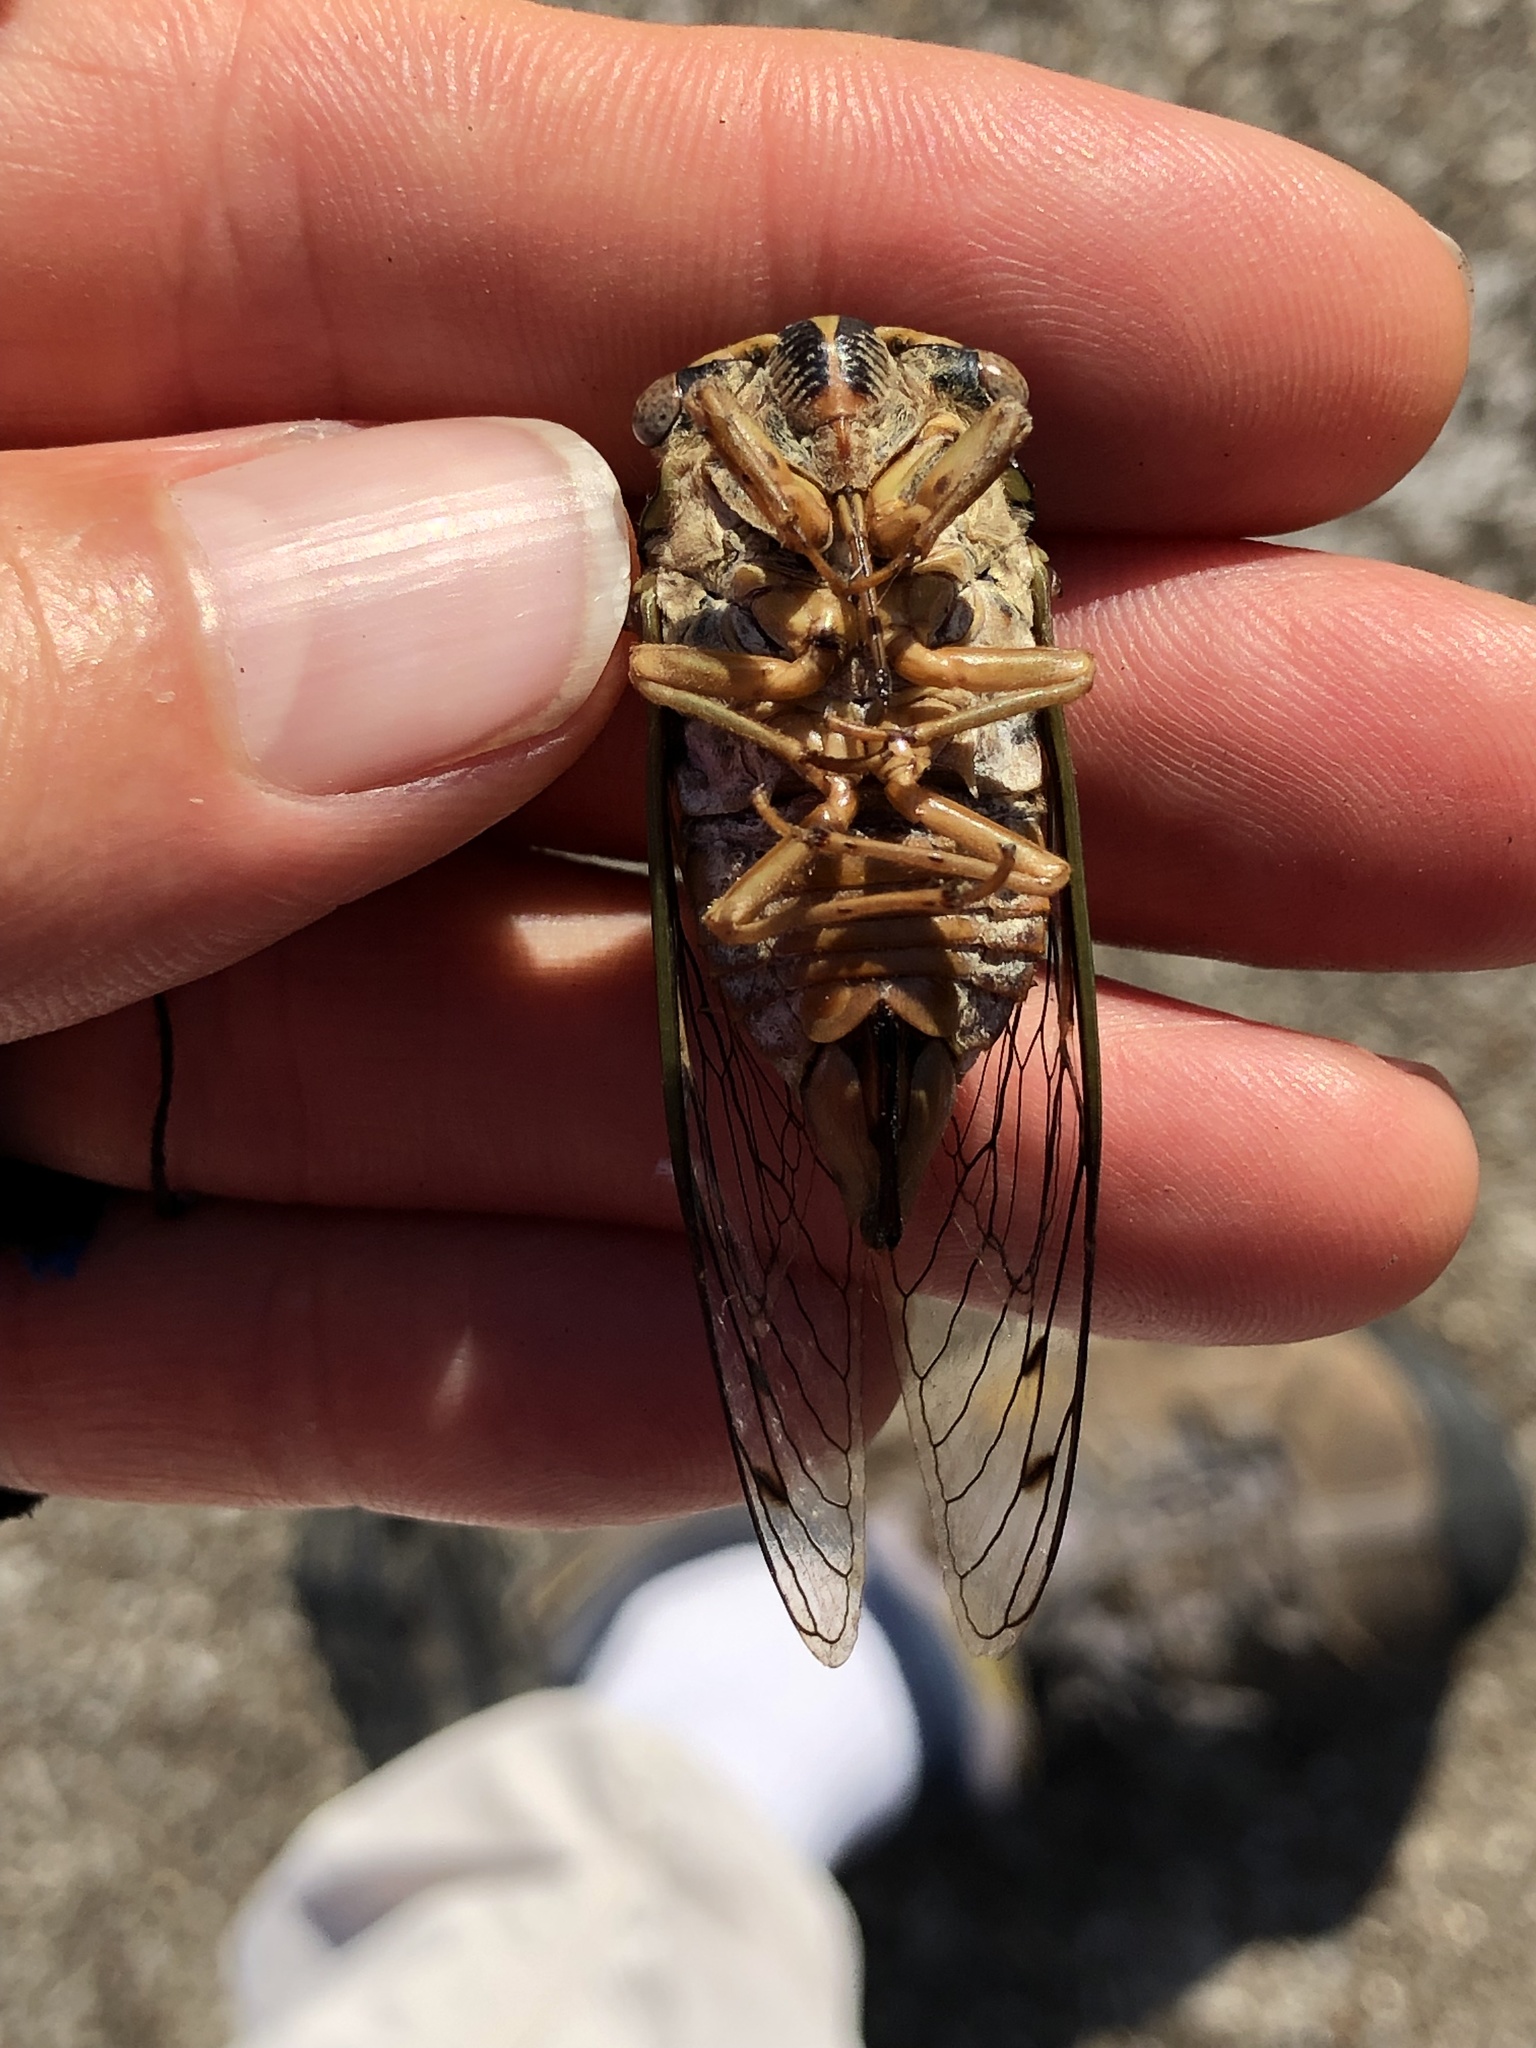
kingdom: Animalia
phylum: Arthropoda
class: Insecta
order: Hemiptera
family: Cicadidae
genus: Megatibicen
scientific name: Megatibicen resh
